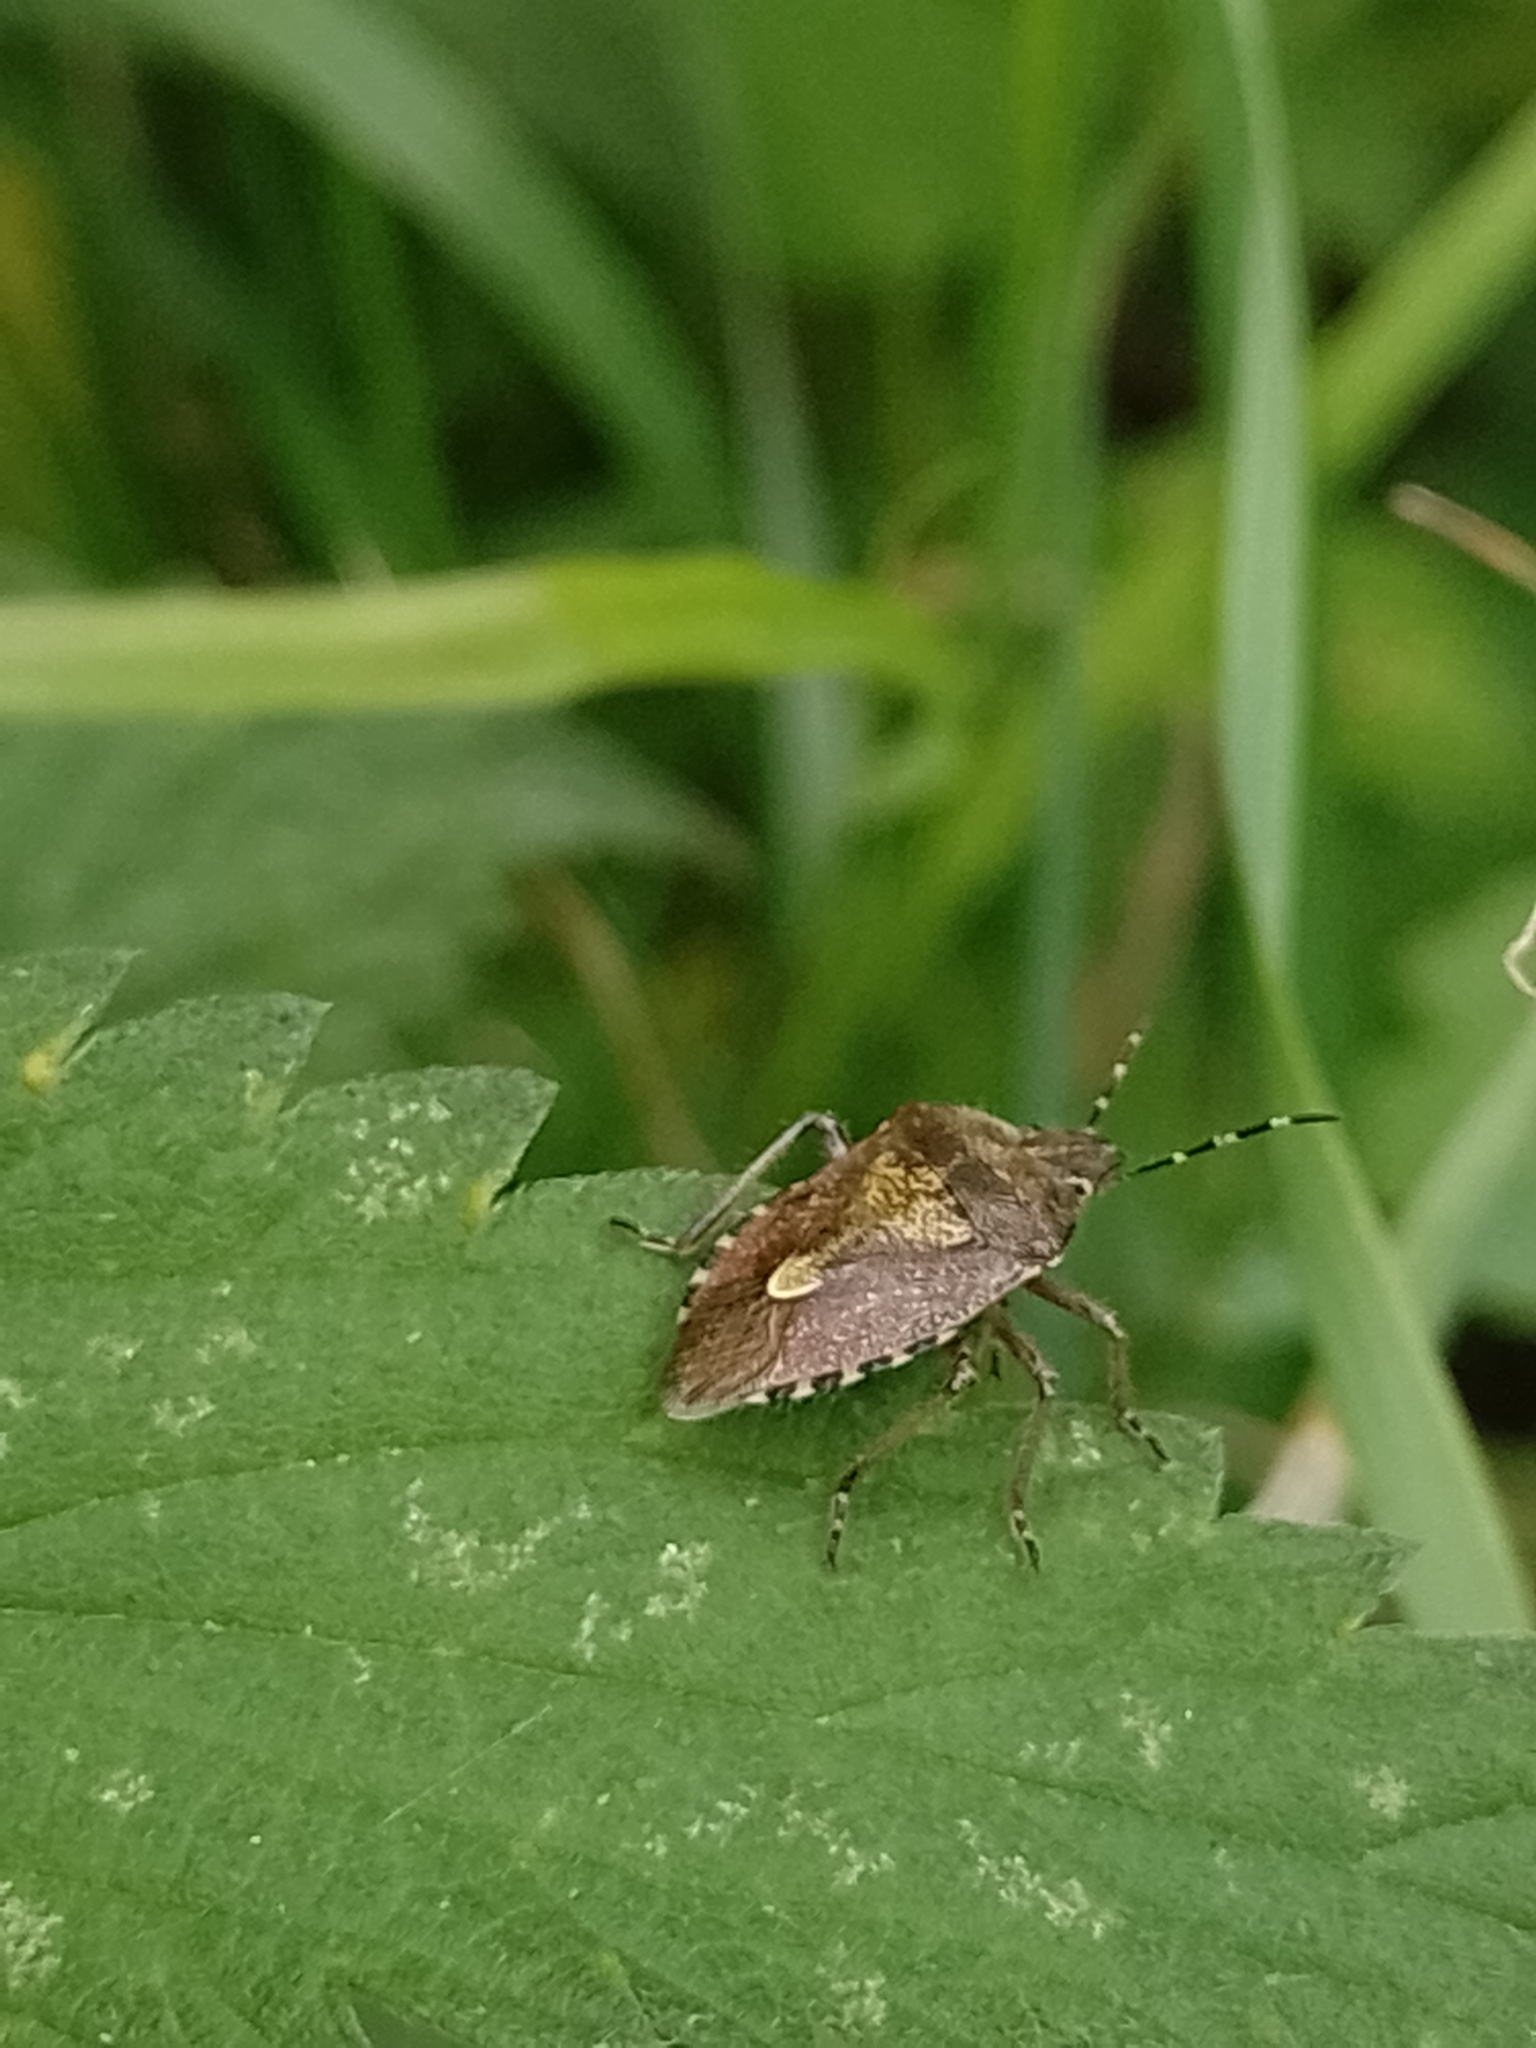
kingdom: Animalia
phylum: Arthropoda
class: Insecta
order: Hemiptera
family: Pentatomidae
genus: Dolycoris
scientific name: Dolycoris baccarum
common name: Sloe bug
